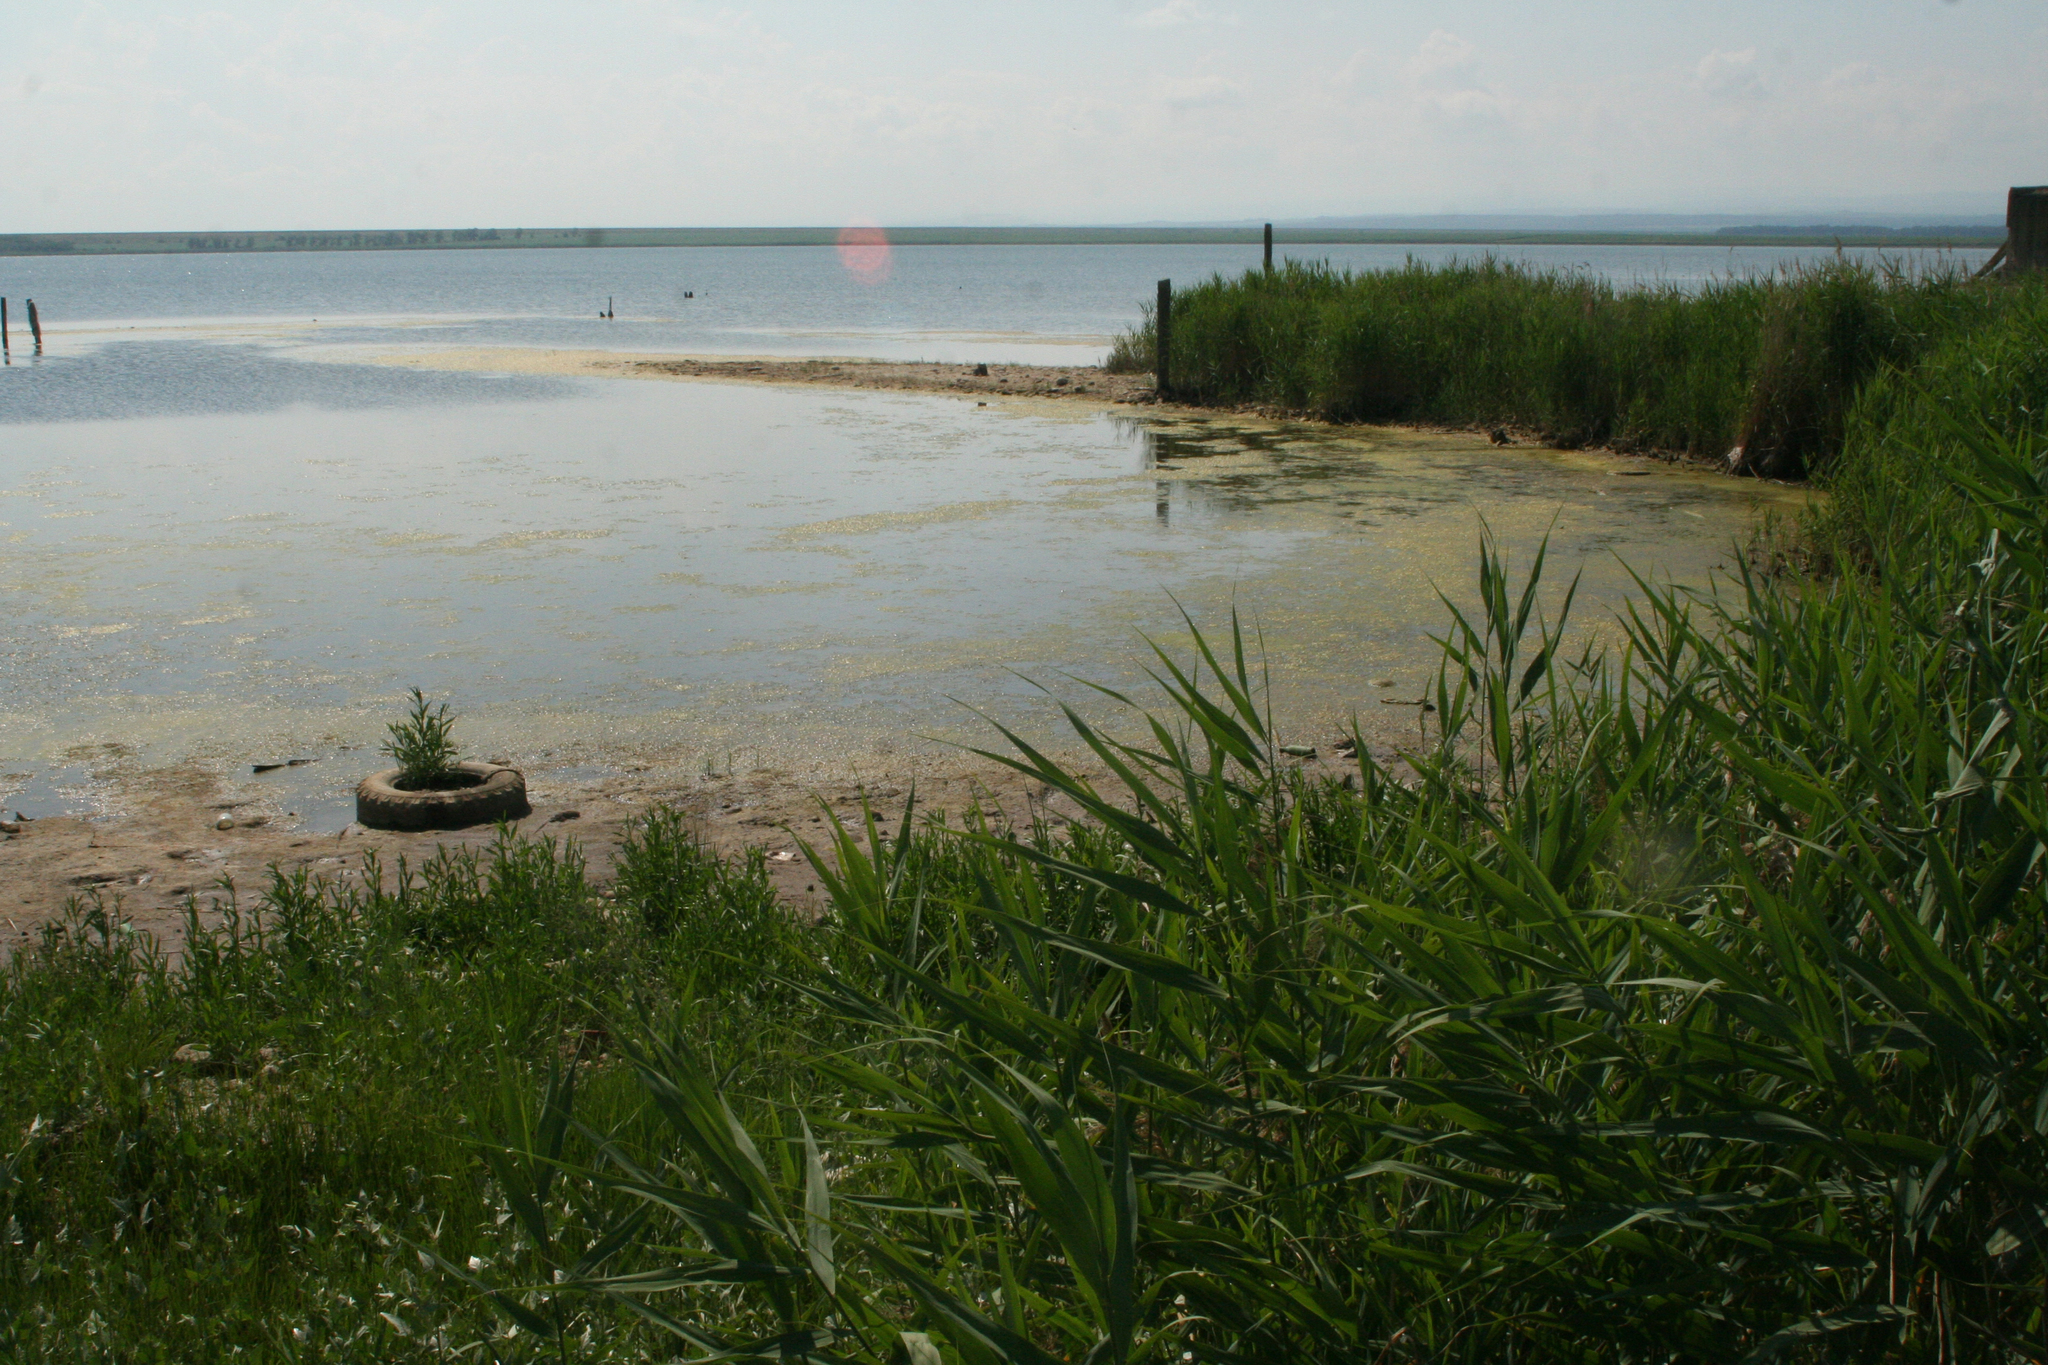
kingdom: Plantae
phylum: Tracheophyta
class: Liliopsida
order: Poales
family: Poaceae
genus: Phragmites
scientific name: Phragmites australis
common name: Common reed
